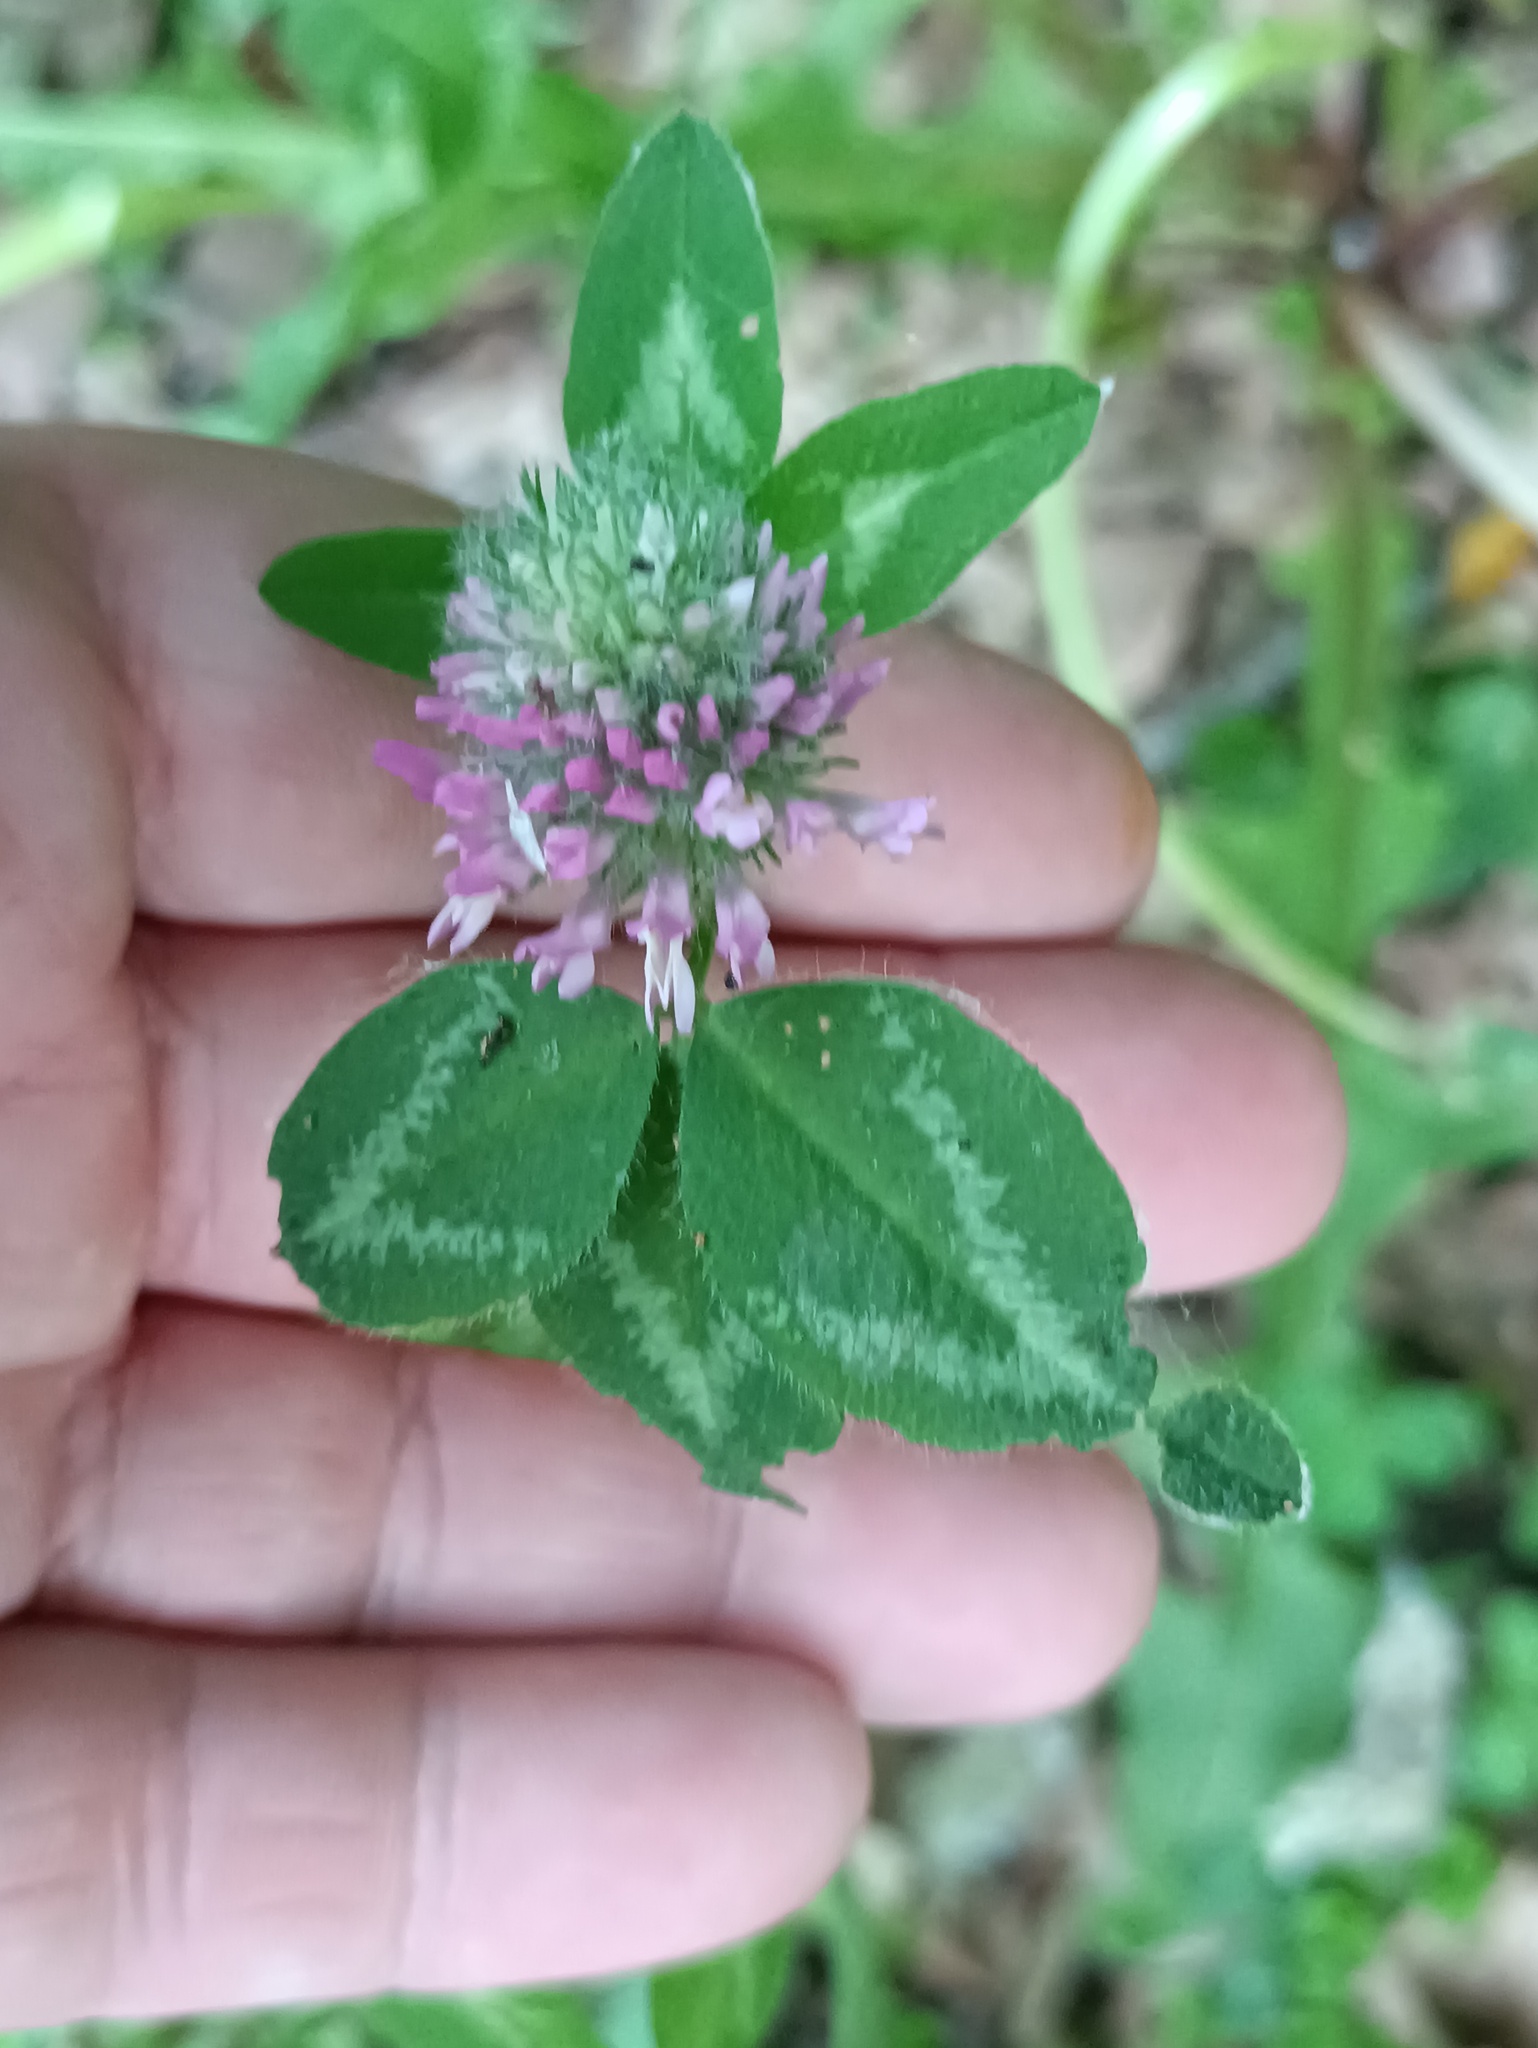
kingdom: Plantae
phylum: Tracheophyta
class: Magnoliopsida
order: Fabales
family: Fabaceae
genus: Trifolium
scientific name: Trifolium pratense
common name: Red clover
